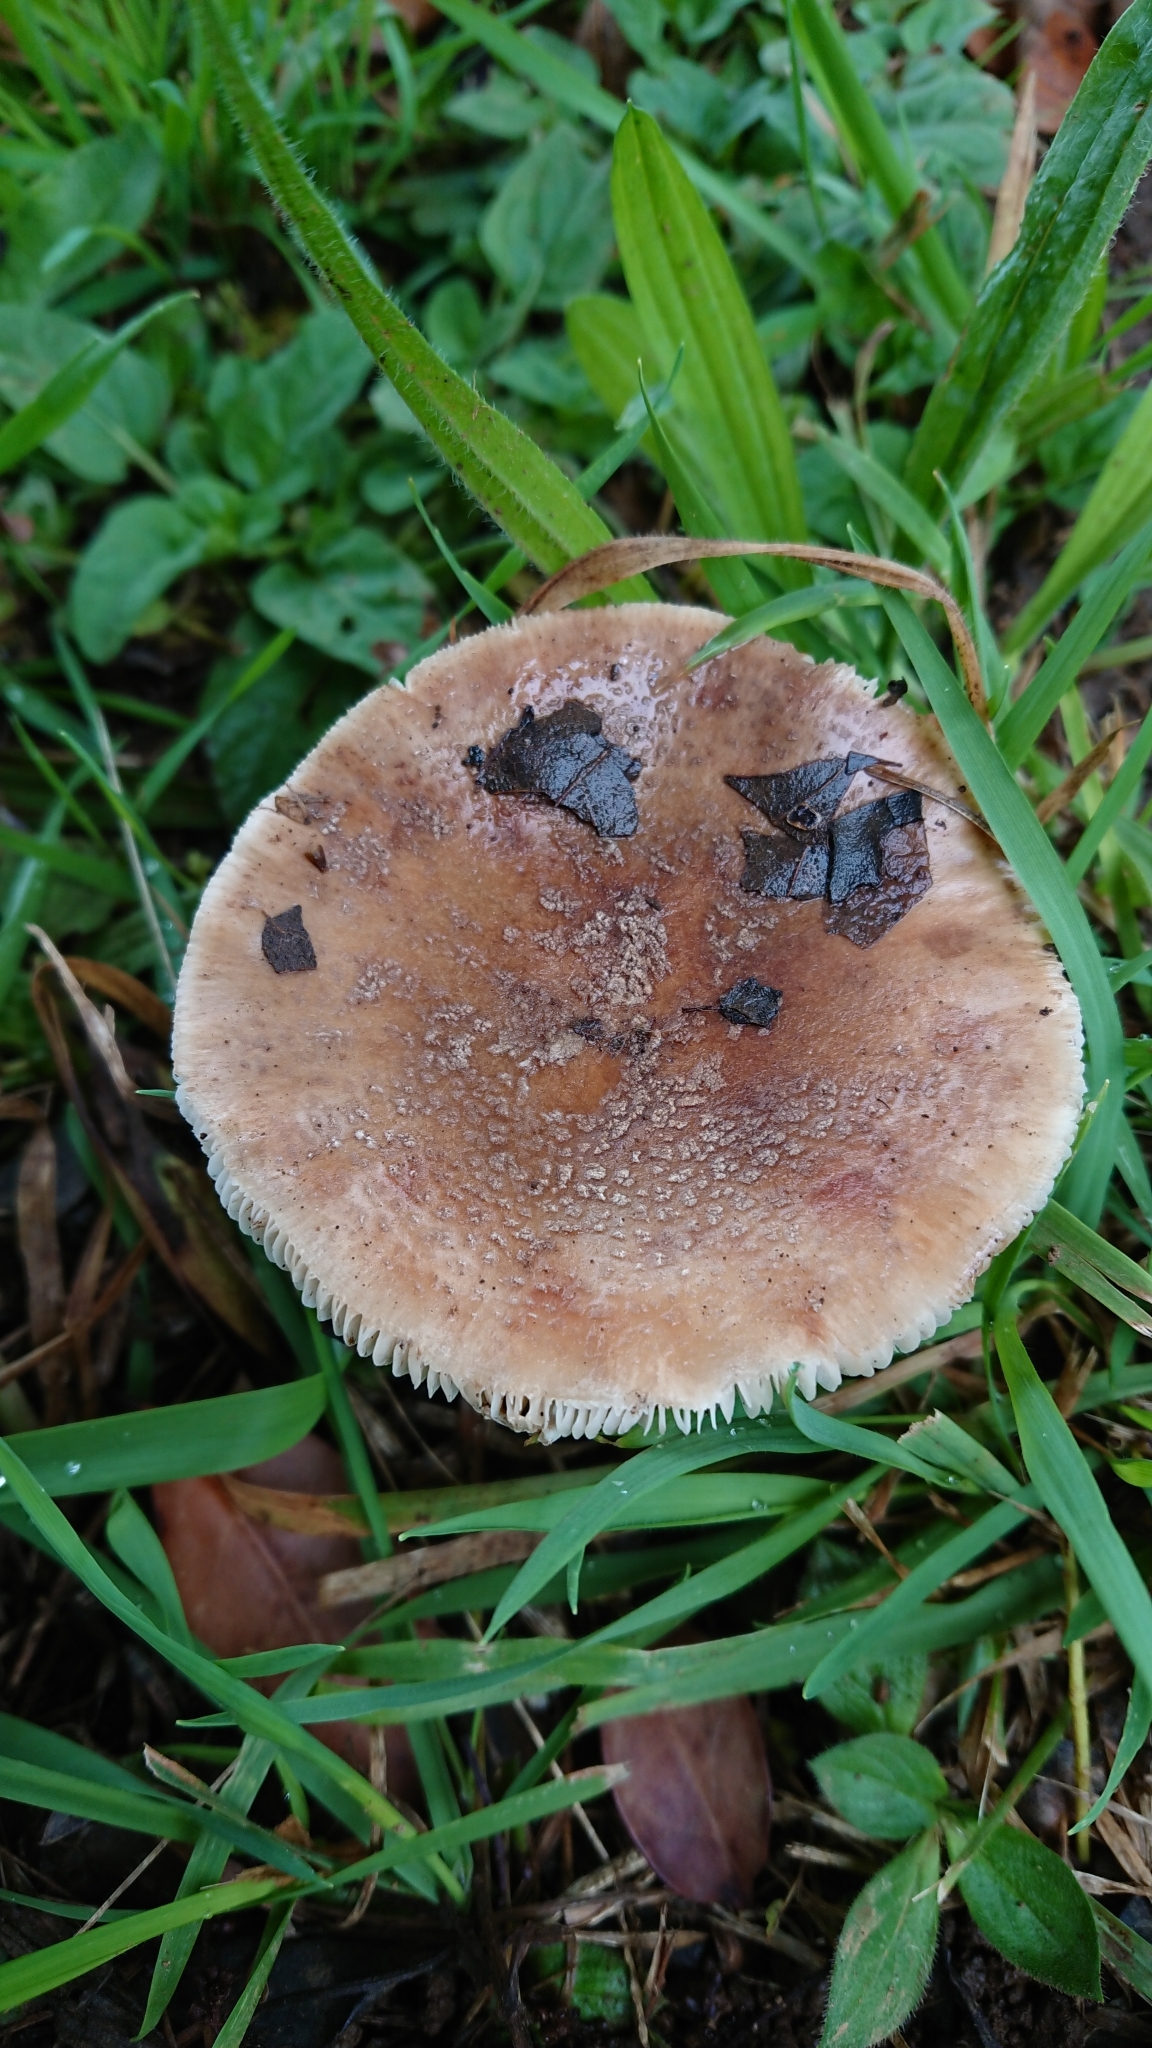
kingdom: Fungi
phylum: Basidiomycota
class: Agaricomycetes
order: Agaricales
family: Amanitaceae
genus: Amanita
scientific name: Amanita rubescens
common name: Blusher
